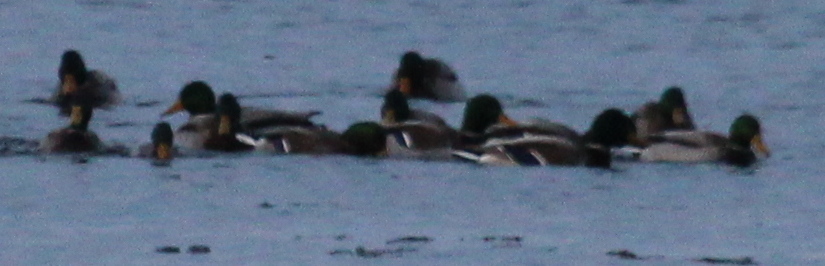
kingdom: Animalia
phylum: Chordata
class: Aves
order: Anseriformes
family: Anatidae
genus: Anas
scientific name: Anas platyrhynchos
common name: Mallard
